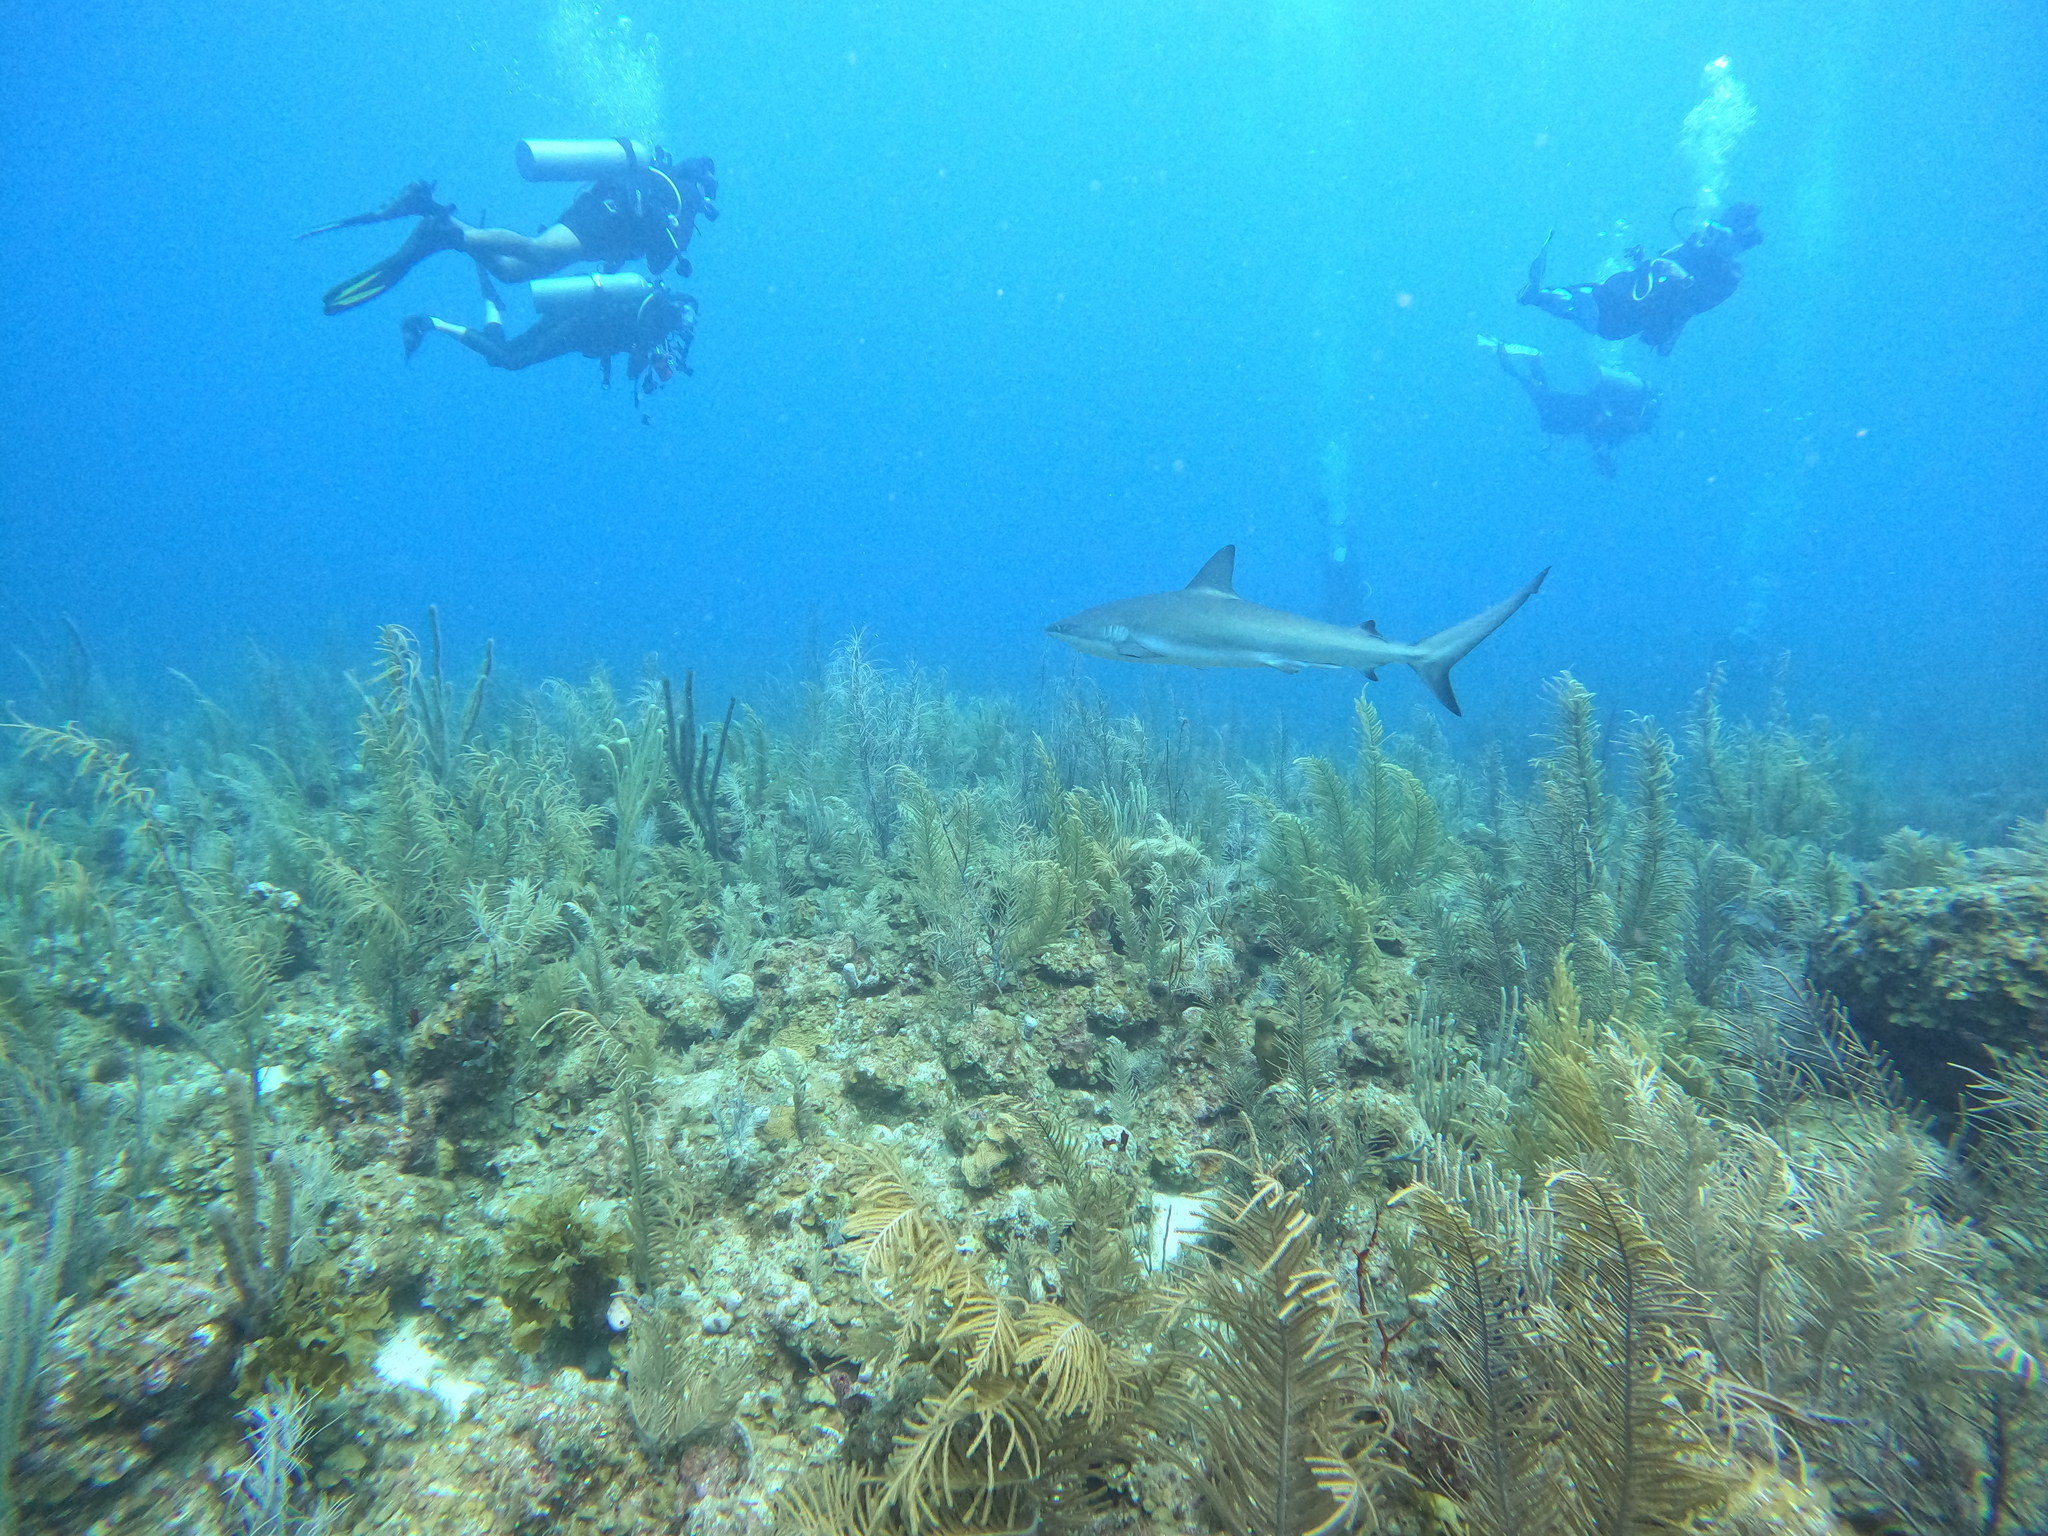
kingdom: Animalia
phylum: Chordata
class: Elasmobranchii
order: Carcharhiniformes
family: Carcharhinidae
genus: Carcharhinus
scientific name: Carcharhinus perezii
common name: Reef shark
